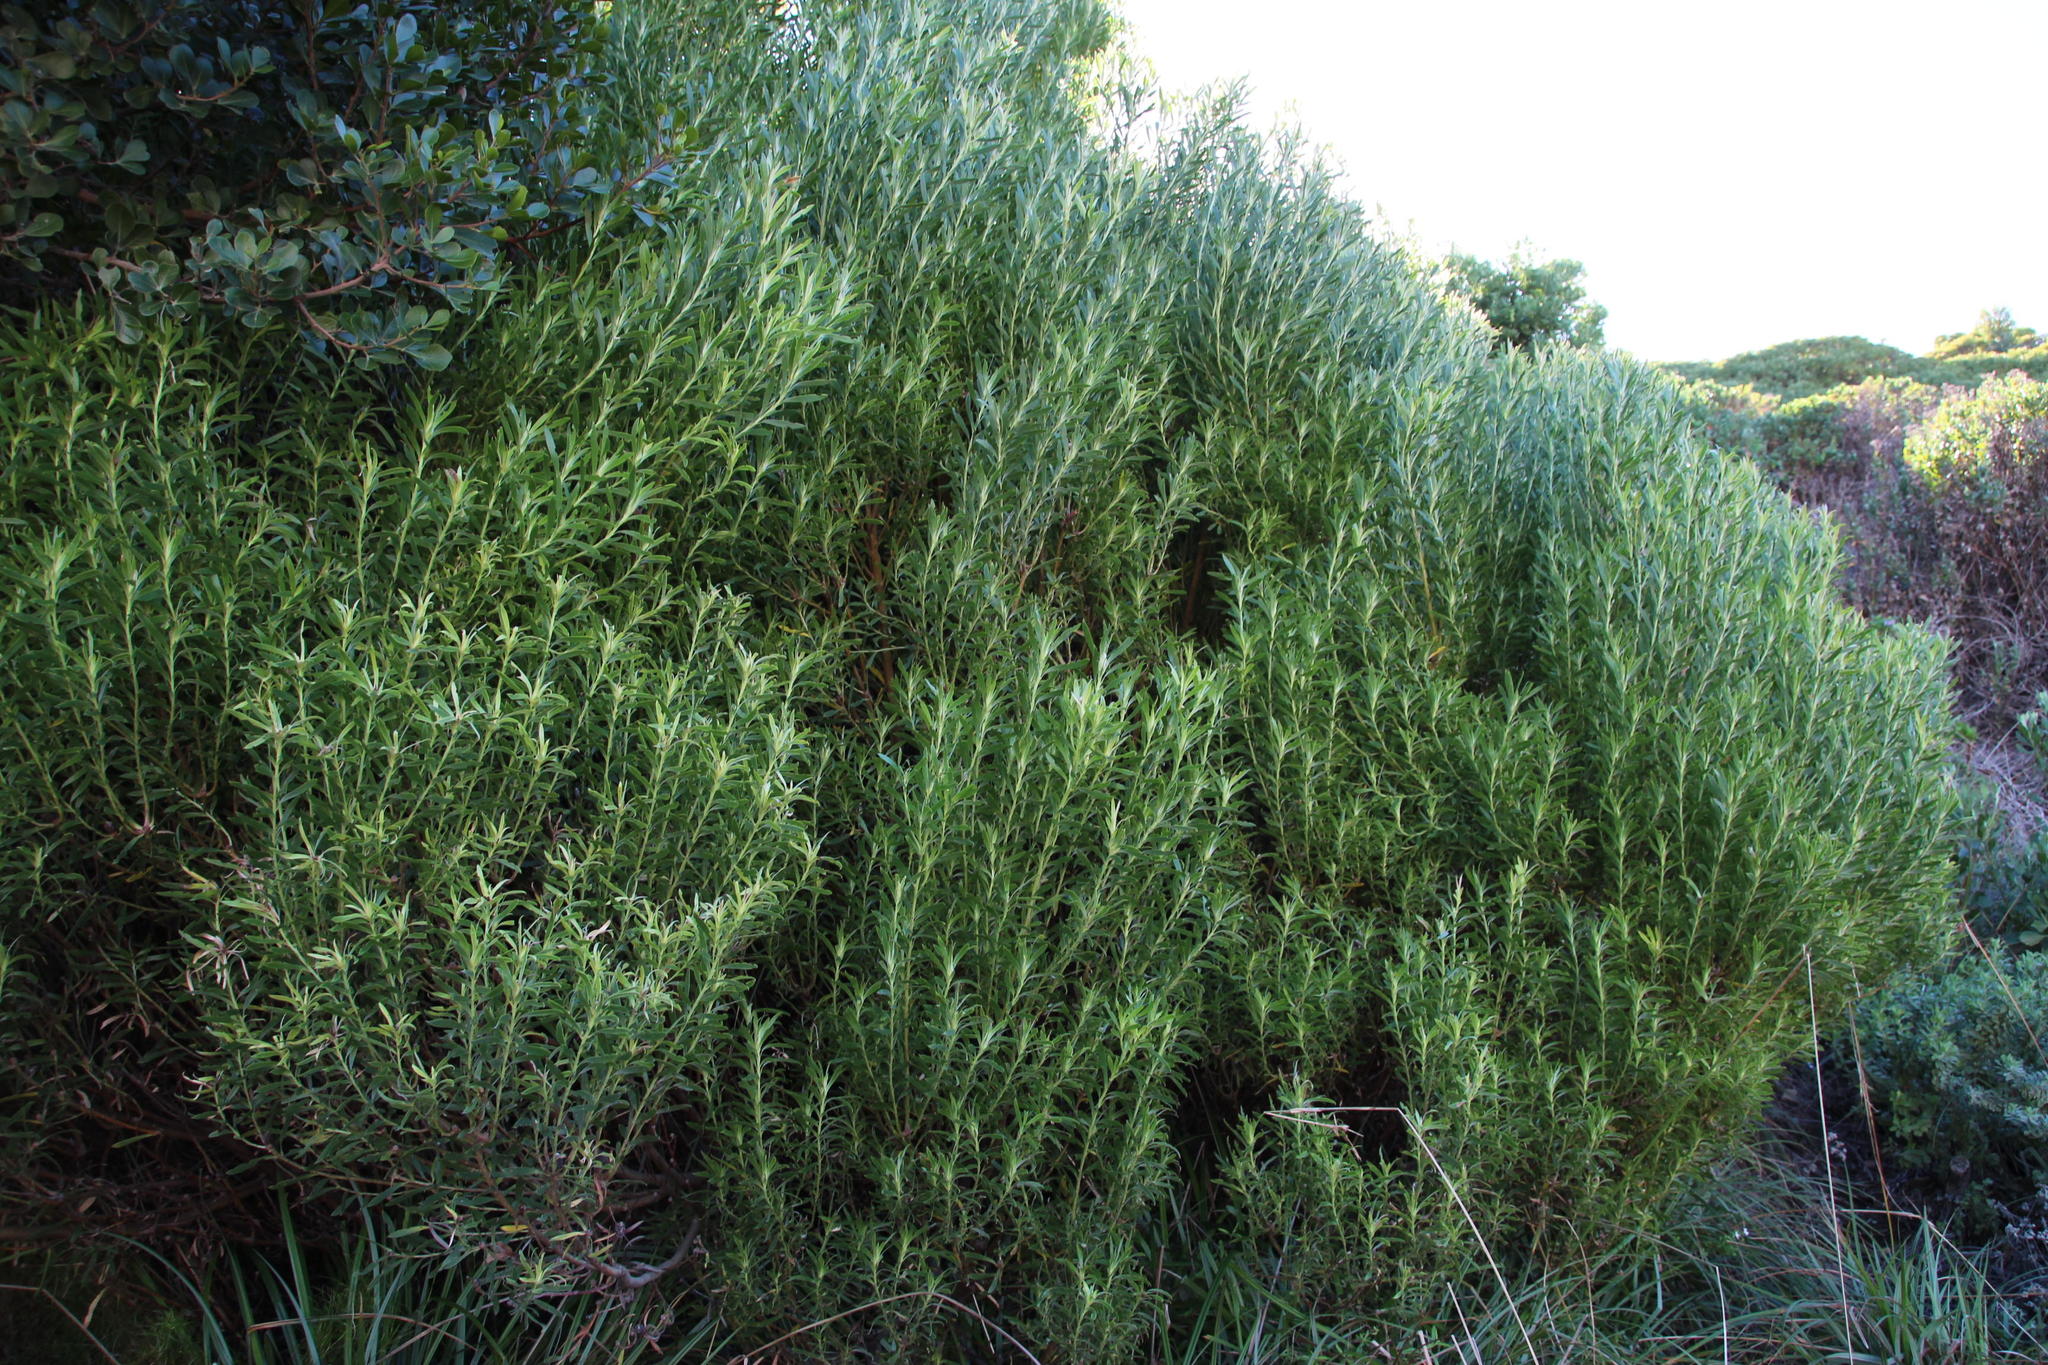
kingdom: Plantae
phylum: Tracheophyta
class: Magnoliopsida
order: Proteales
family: Proteaceae
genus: Leucadendron
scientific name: Leucadendron coniferum
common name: Dune conebush
